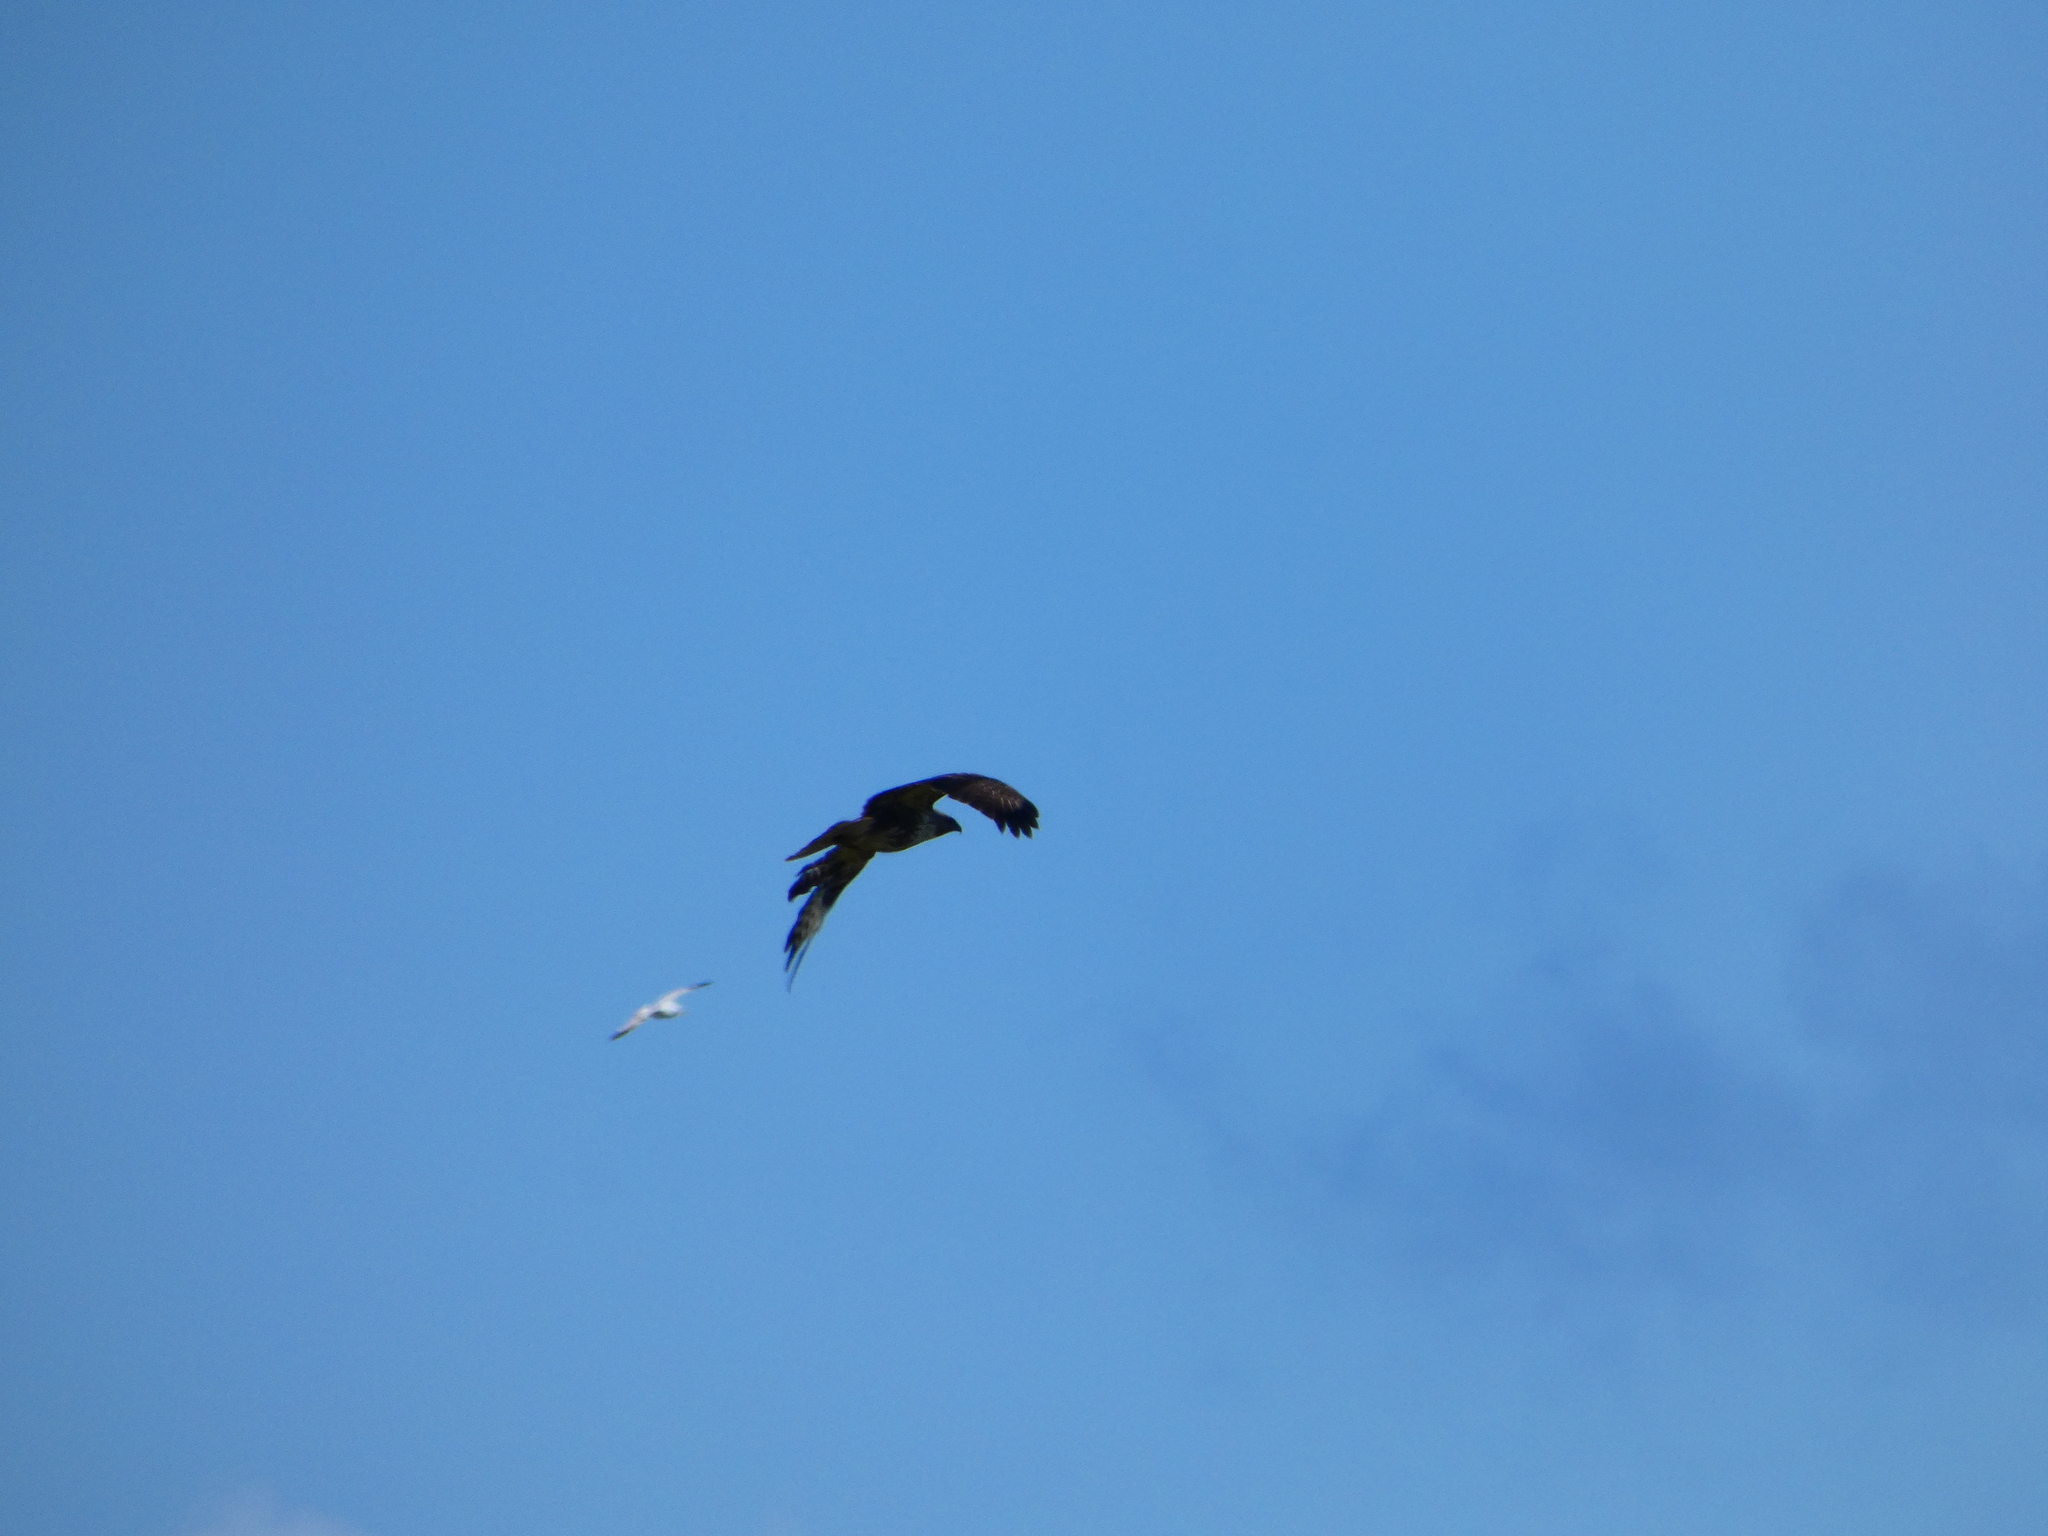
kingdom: Animalia
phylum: Chordata
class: Aves
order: Accipitriformes
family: Accipitridae
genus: Buteo
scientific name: Buteo buteo
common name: Common buzzard
